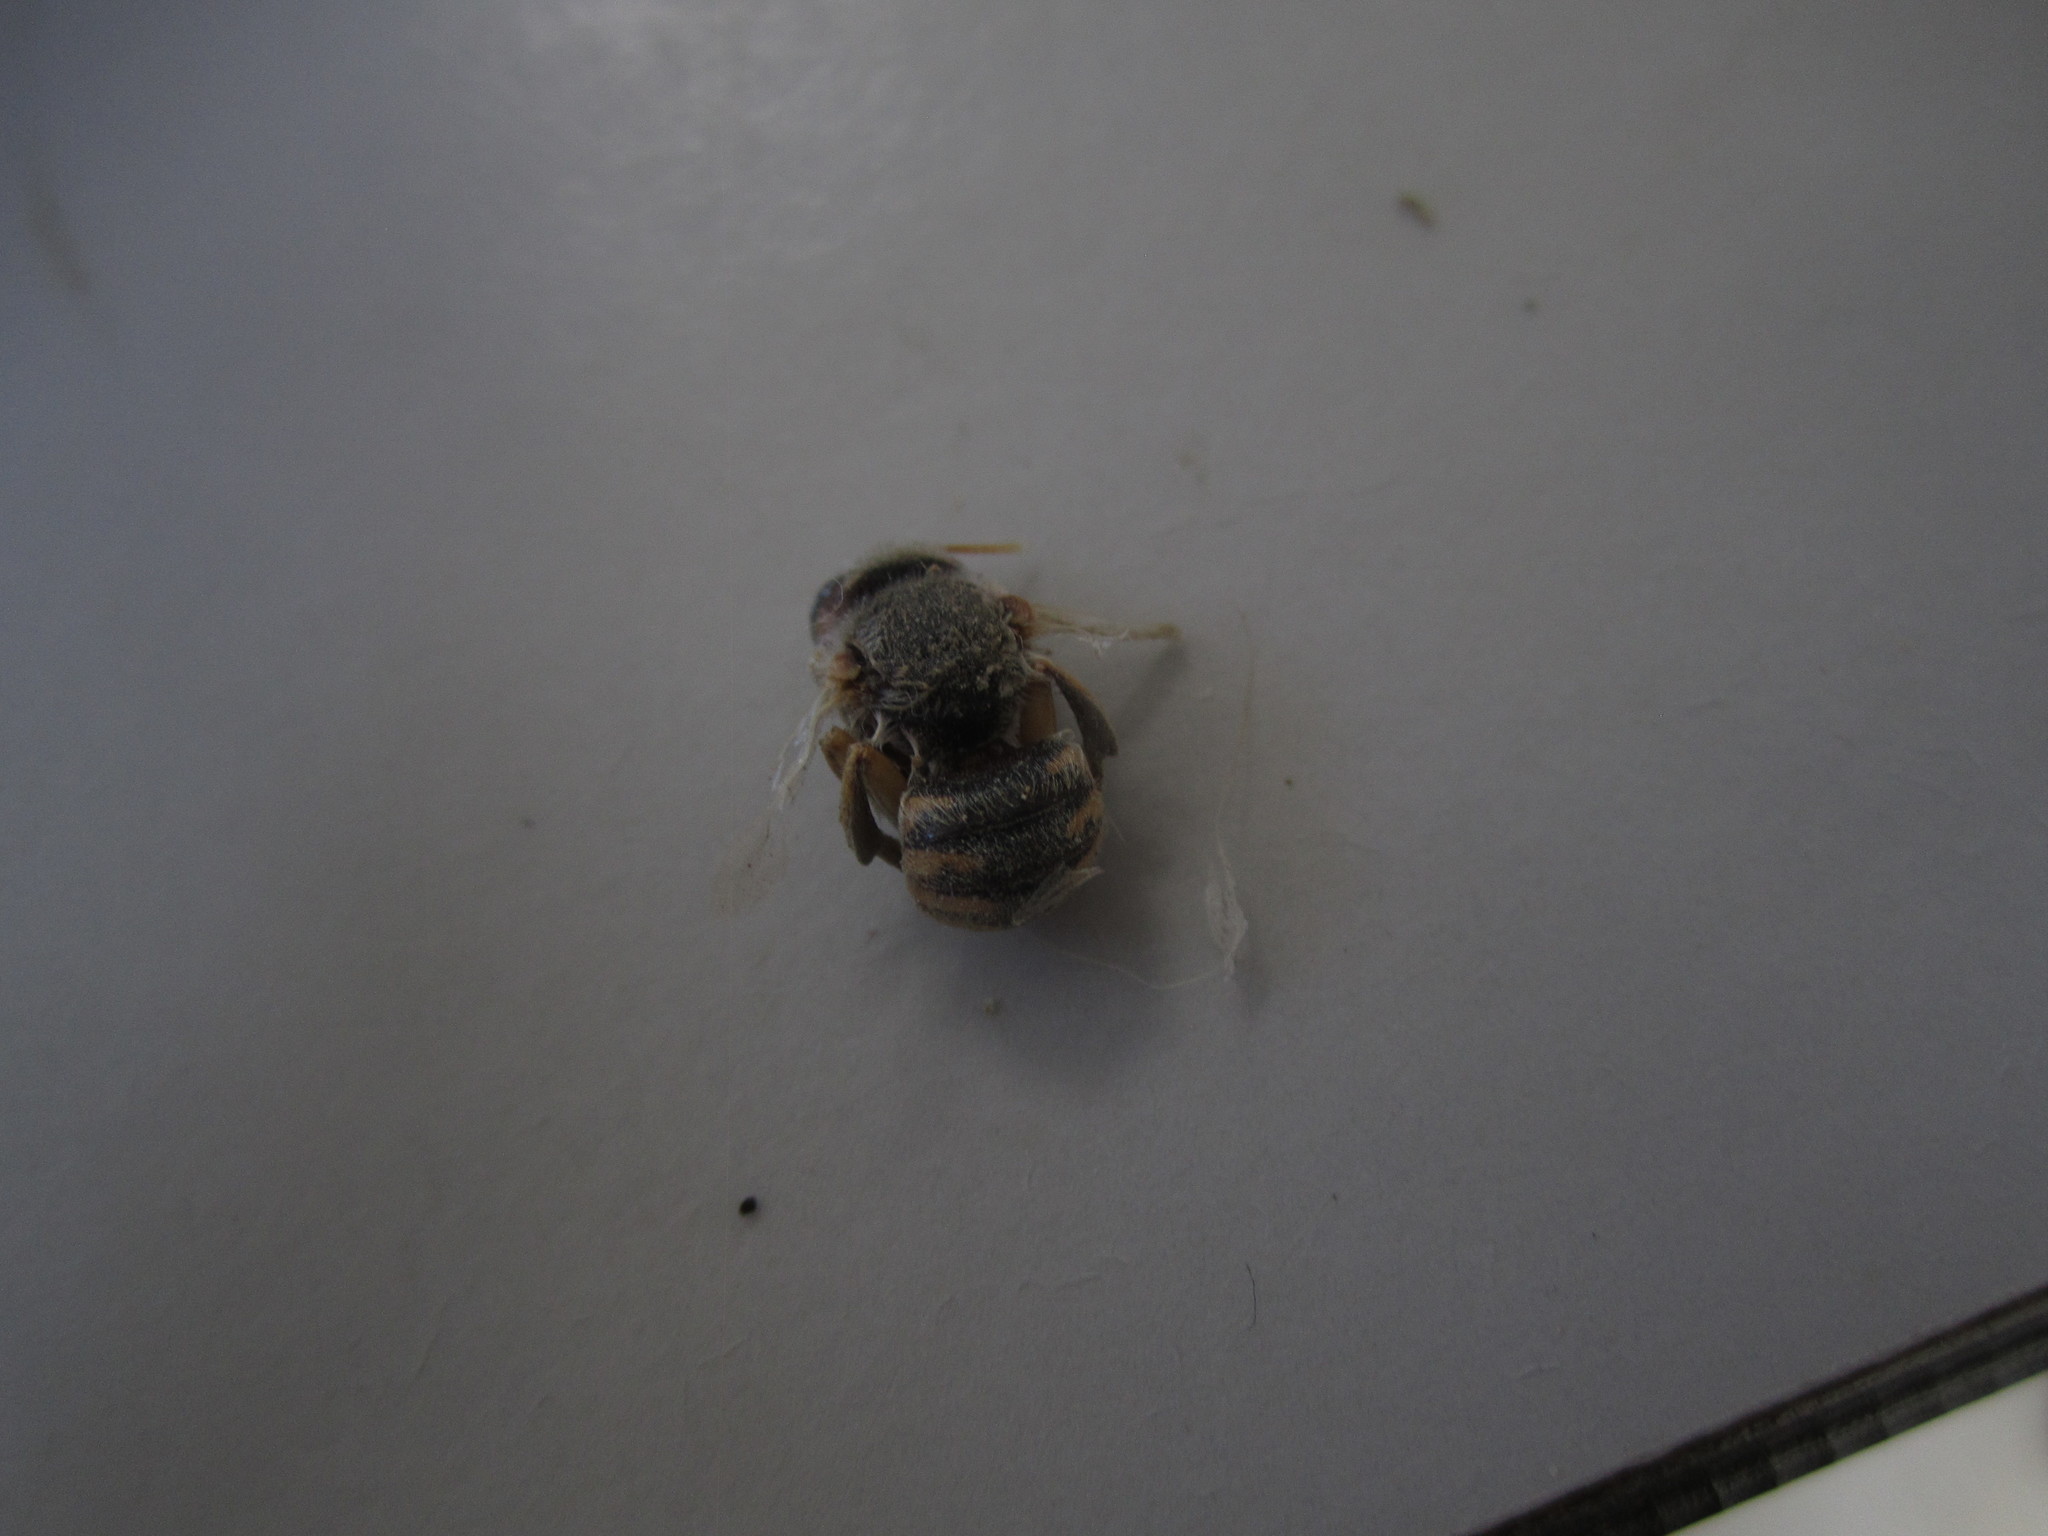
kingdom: Animalia
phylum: Arthropoda
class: Insecta
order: Hymenoptera
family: Megachilidae
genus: Anthidium
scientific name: Anthidium manicatum
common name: Wool carder bee
